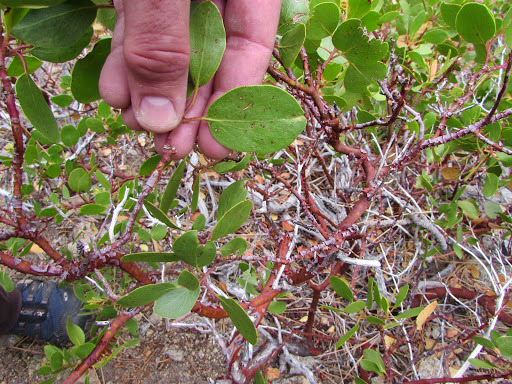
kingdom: Plantae
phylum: Tracheophyta
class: Magnoliopsida
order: Ericales
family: Ericaceae
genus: Arctostaphylos
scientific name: Arctostaphylos patula
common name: Green-leaf manzanita
